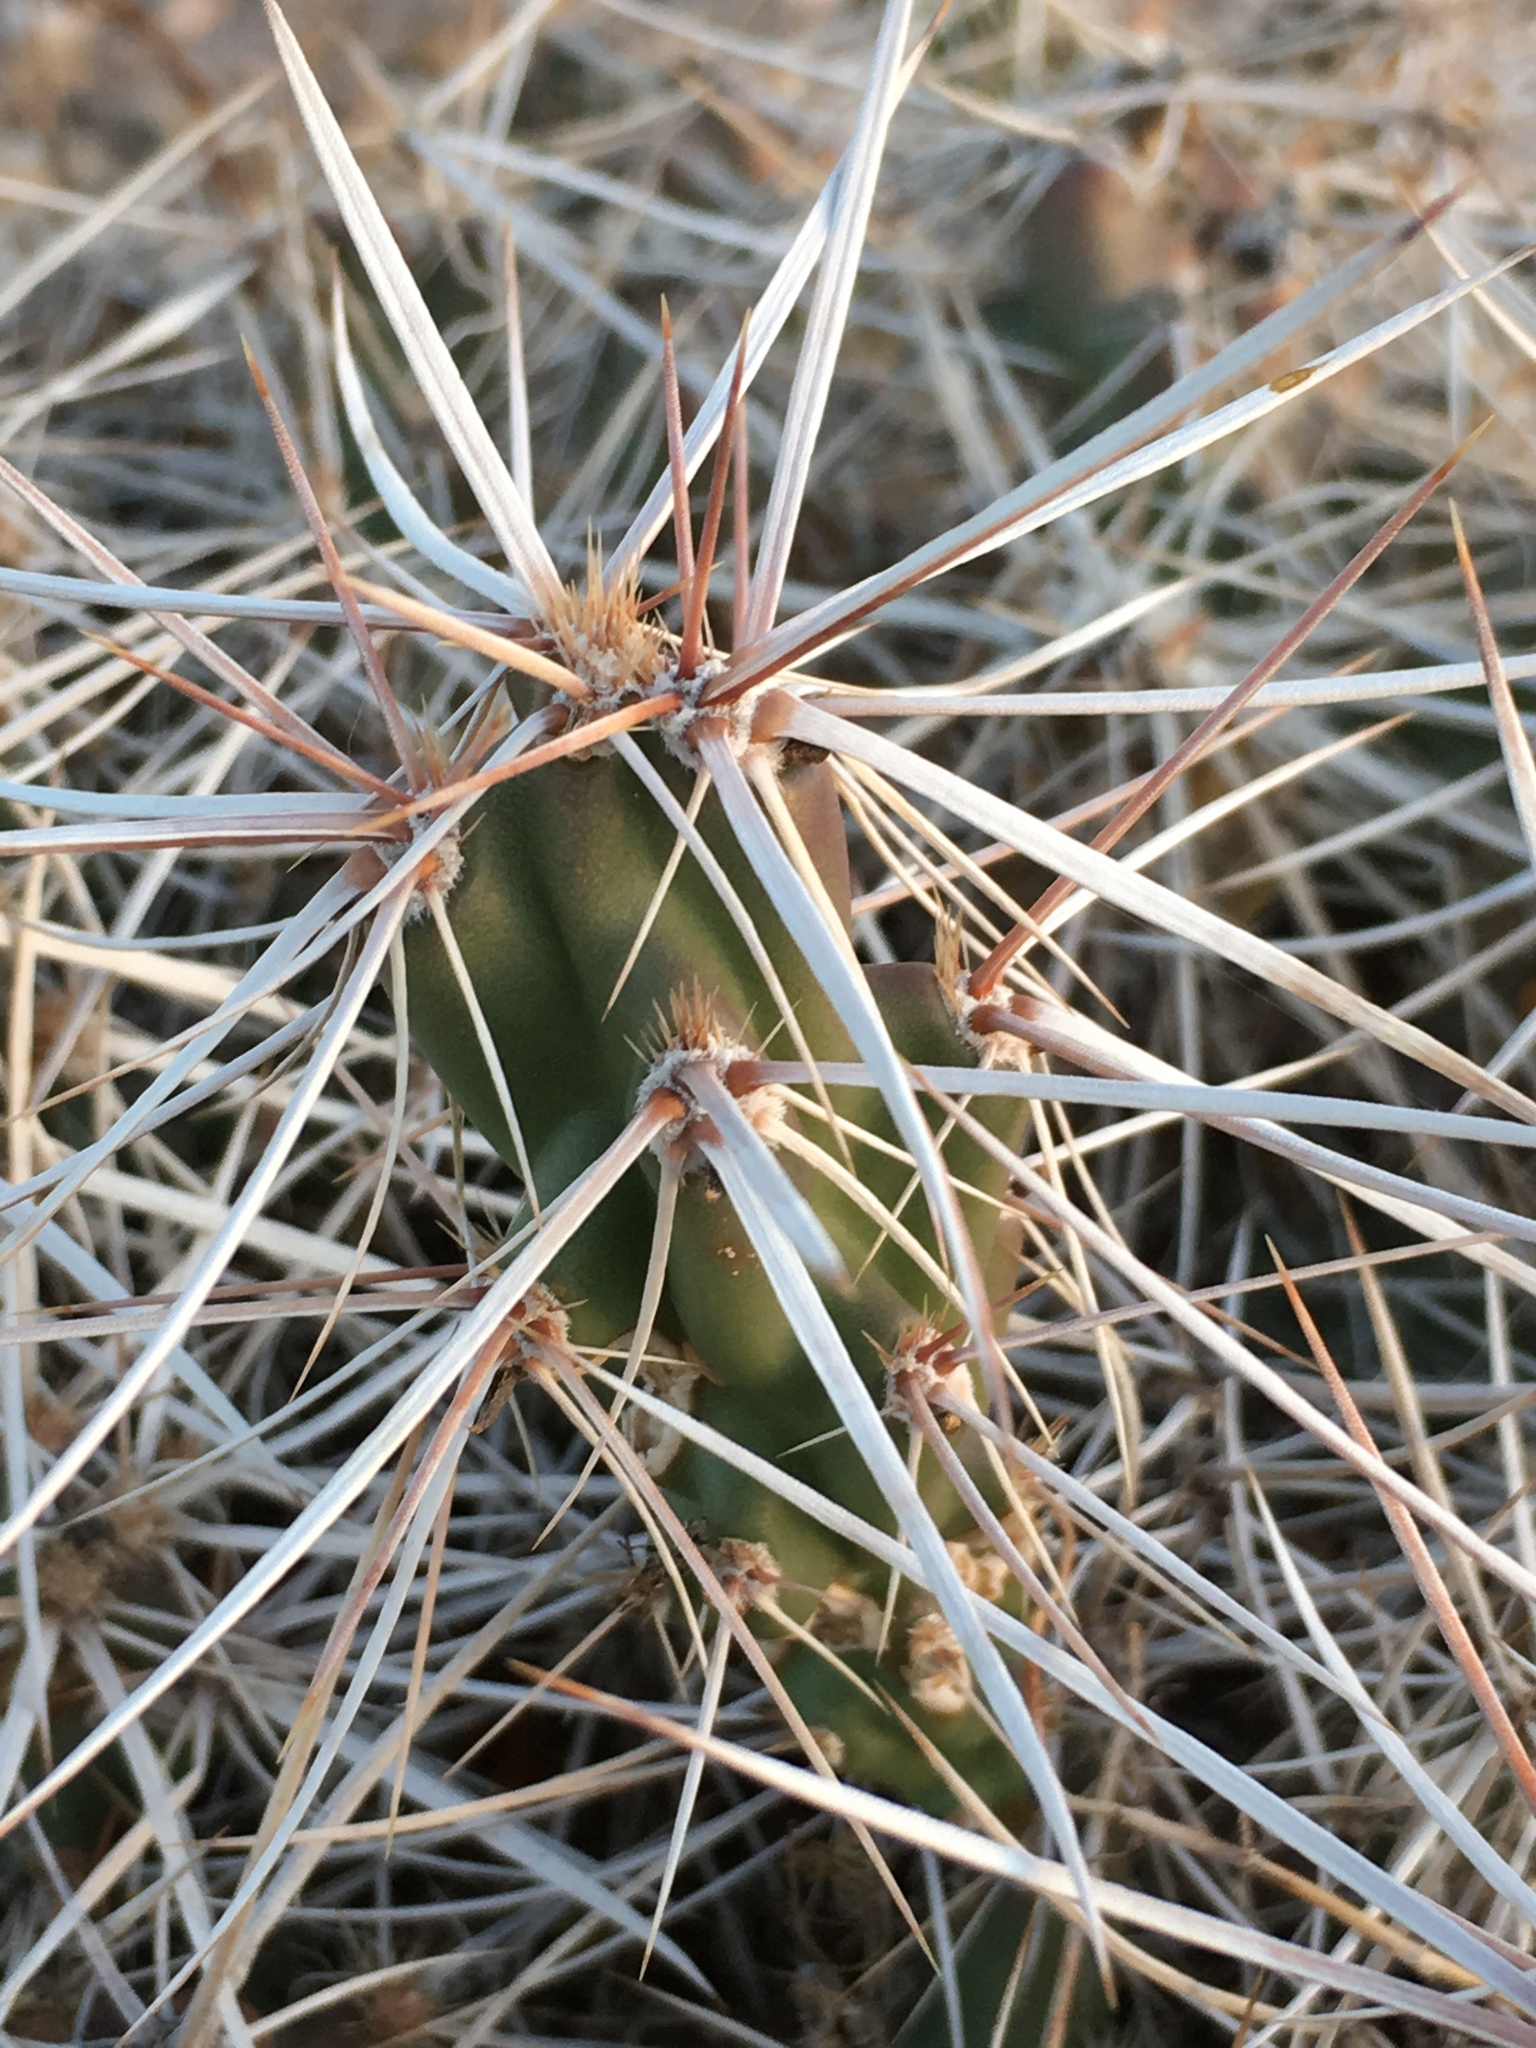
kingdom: Plantae
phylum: Tracheophyta
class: Magnoliopsida
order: Caryophyllales
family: Cactaceae
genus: Grusonia
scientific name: Grusonia aggeria
